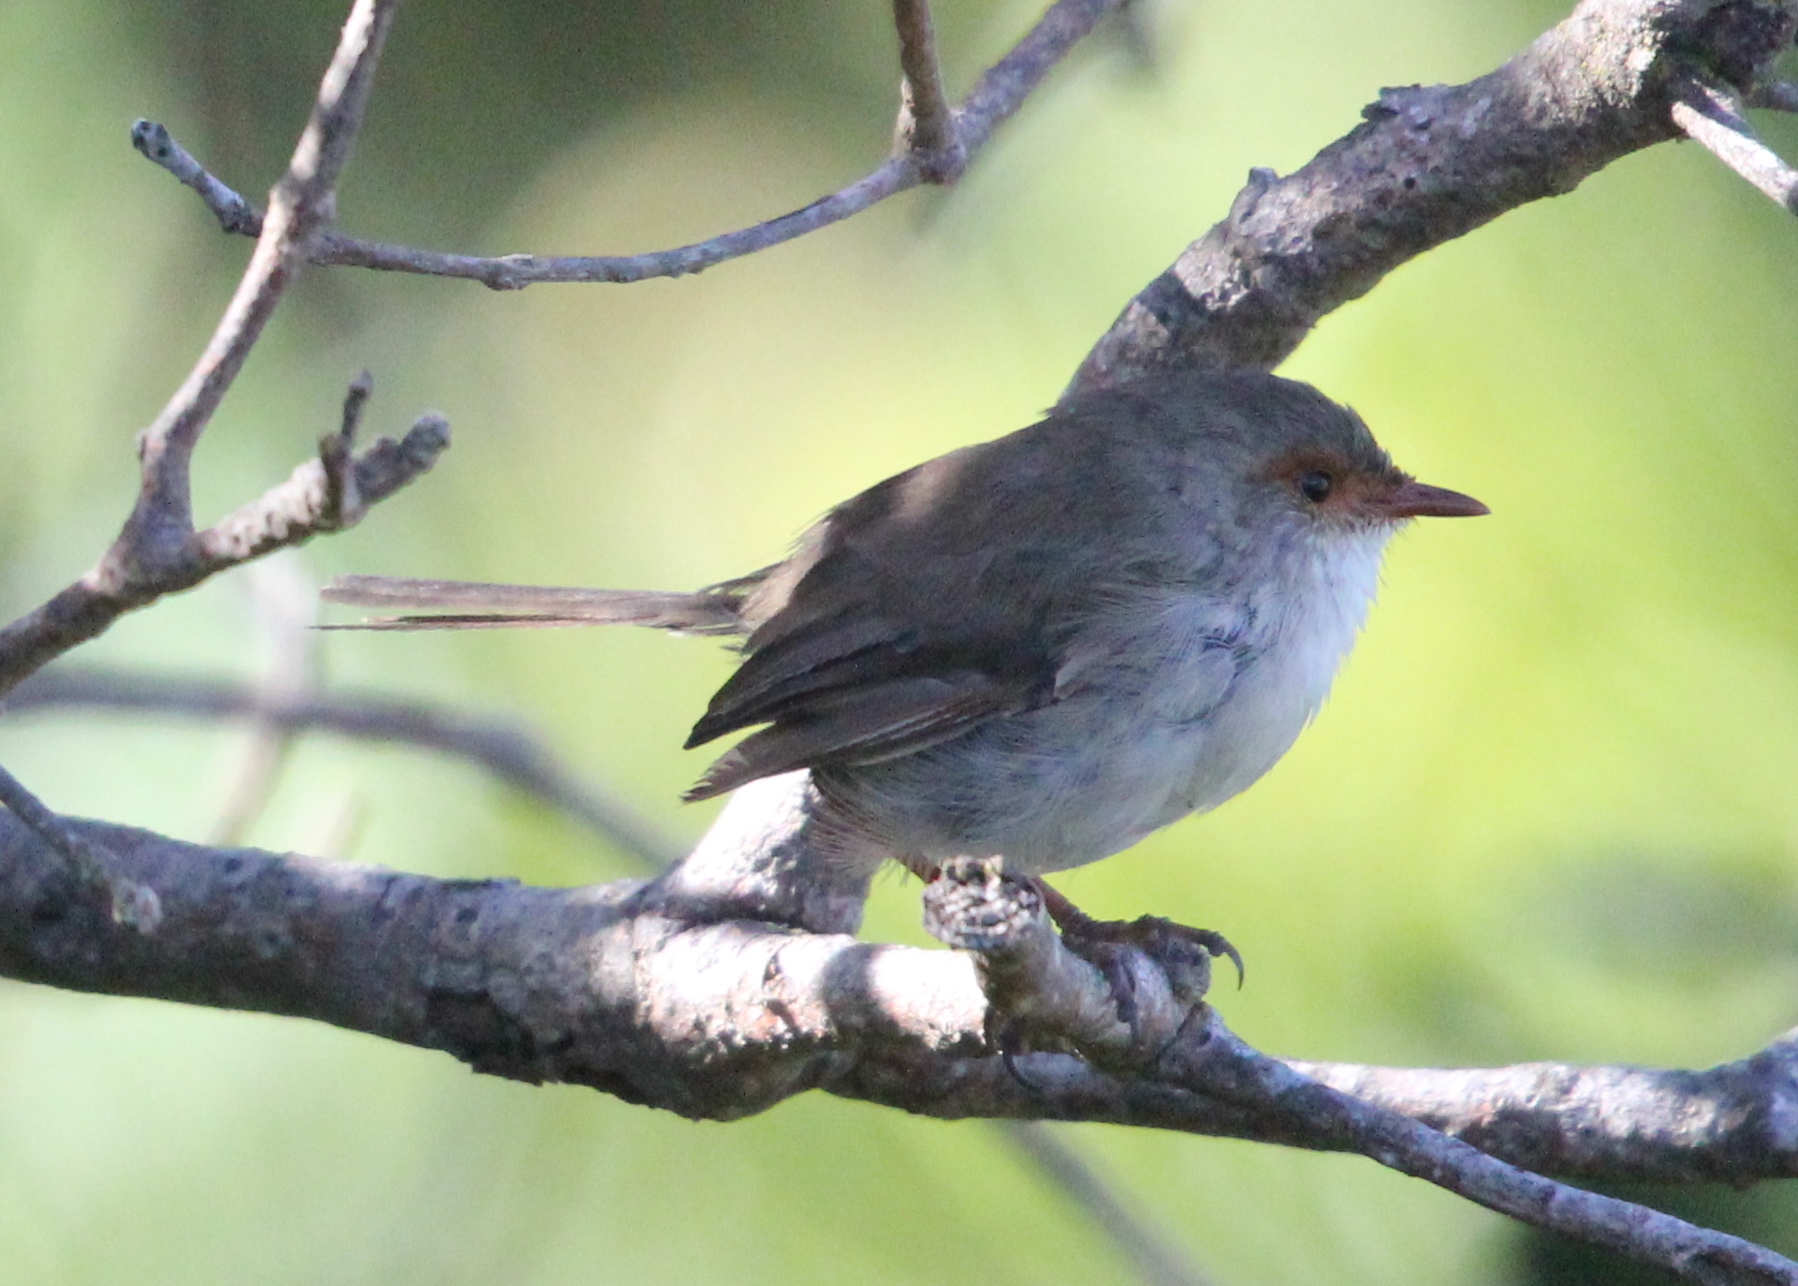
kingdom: Animalia
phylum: Chordata
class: Aves
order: Passeriformes
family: Maluridae
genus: Malurus
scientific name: Malurus cyaneus
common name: Superb fairywren
